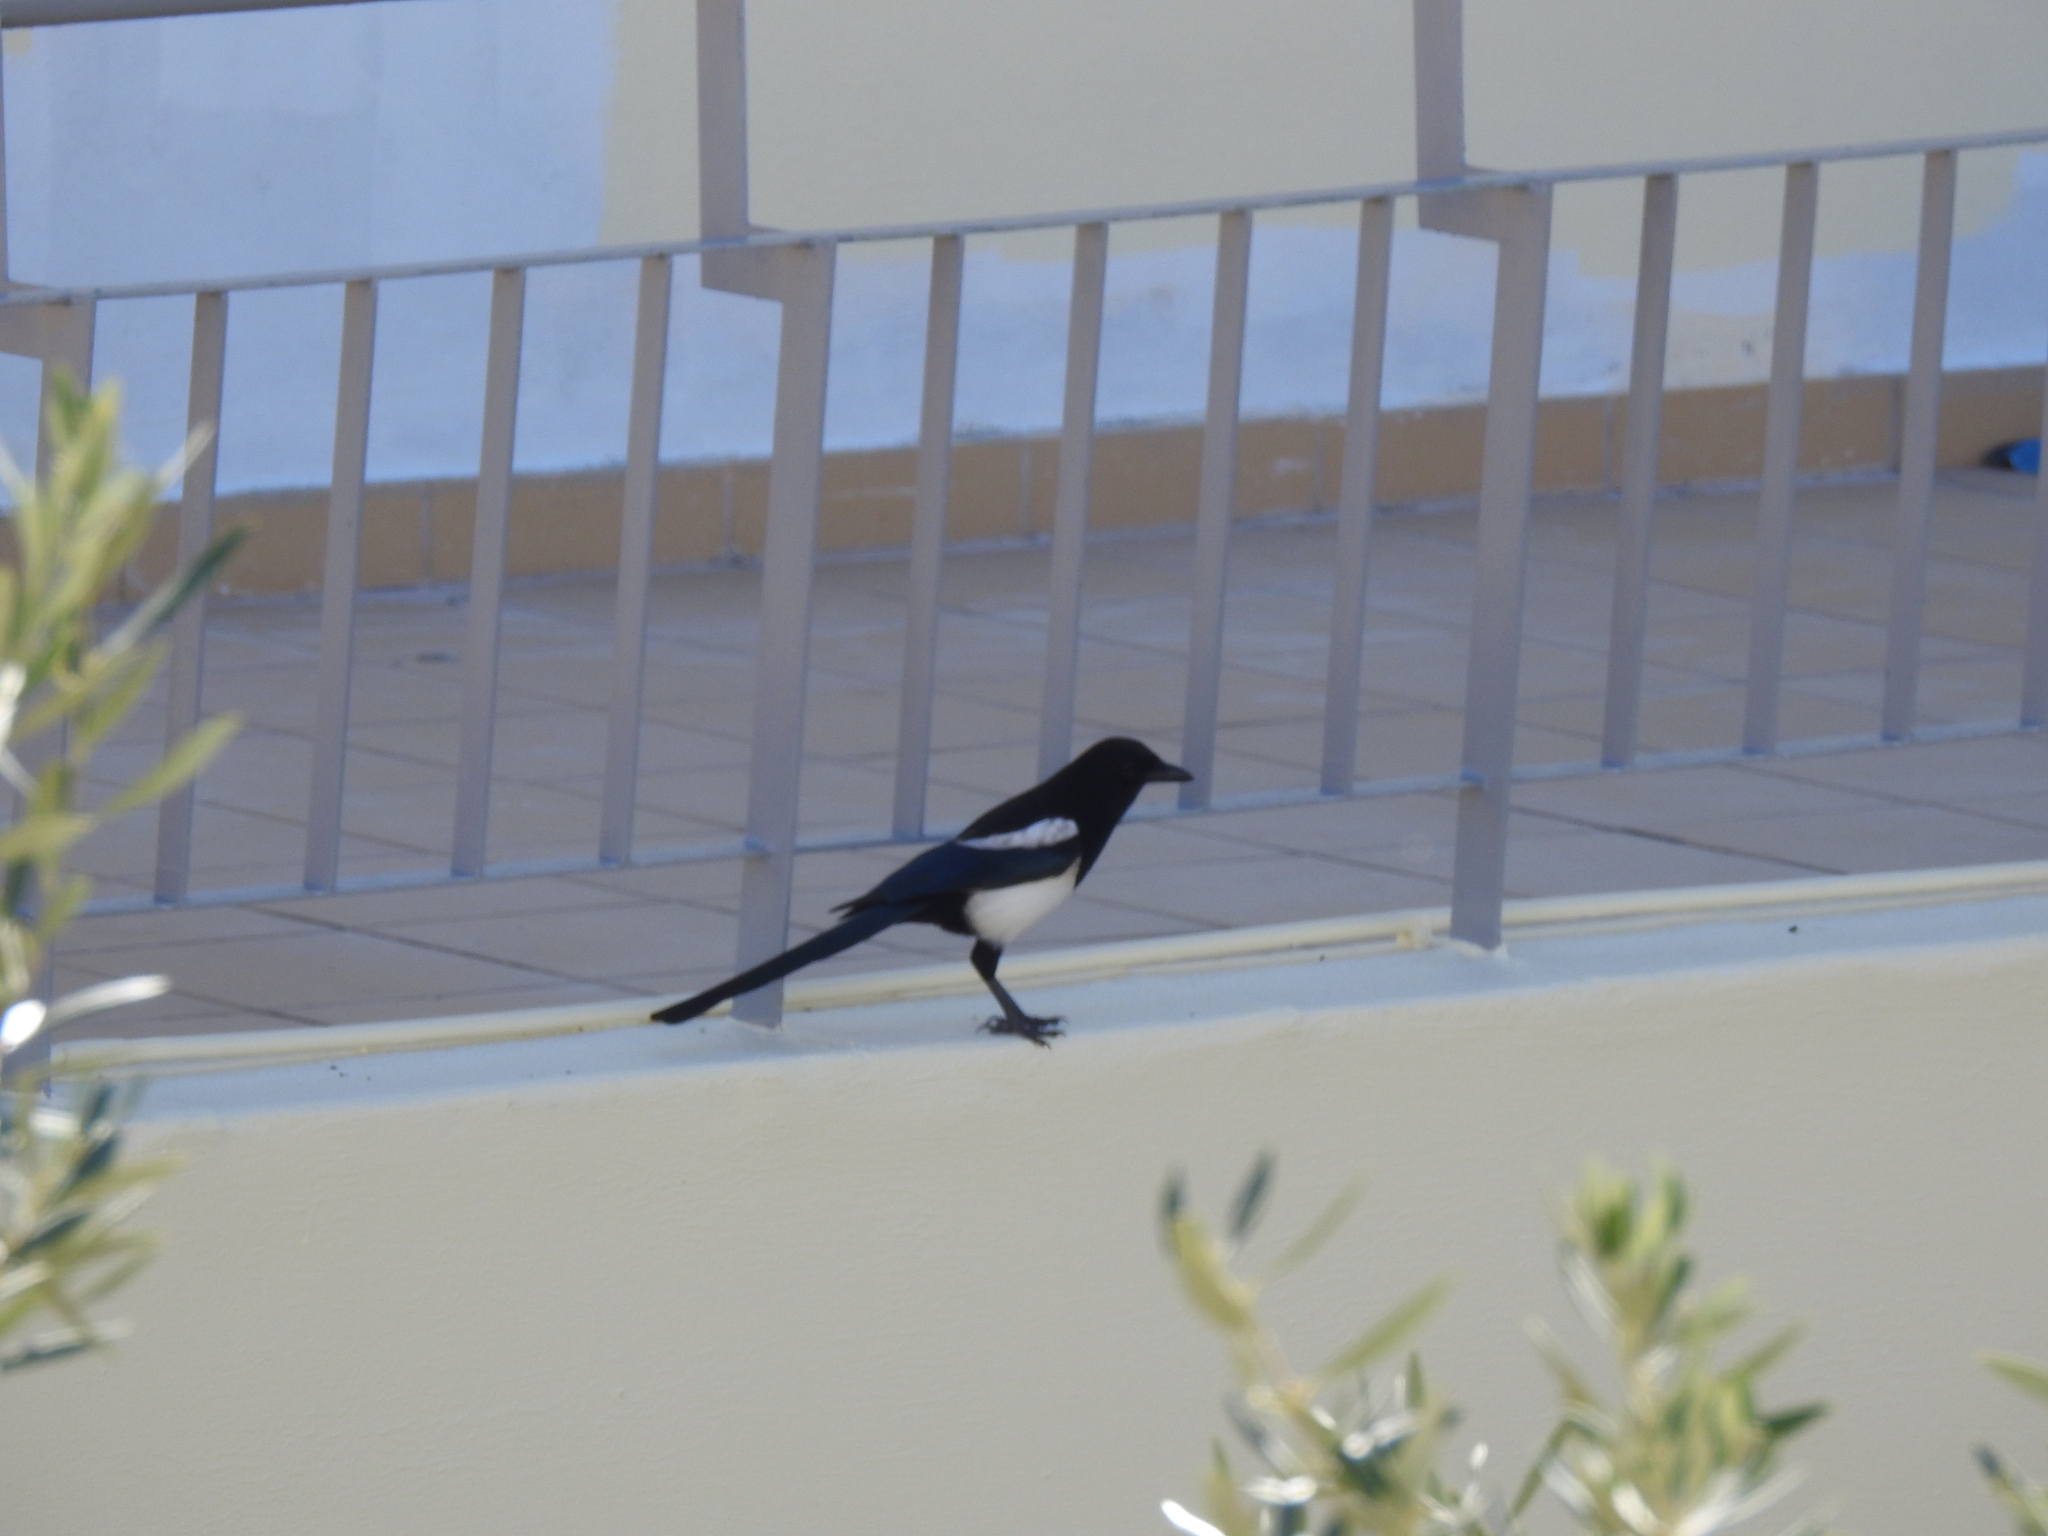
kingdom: Animalia
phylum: Chordata
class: Aves
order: Passeriformes
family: Corvidae
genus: Pica
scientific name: Pica pica
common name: Eurasian magpie
